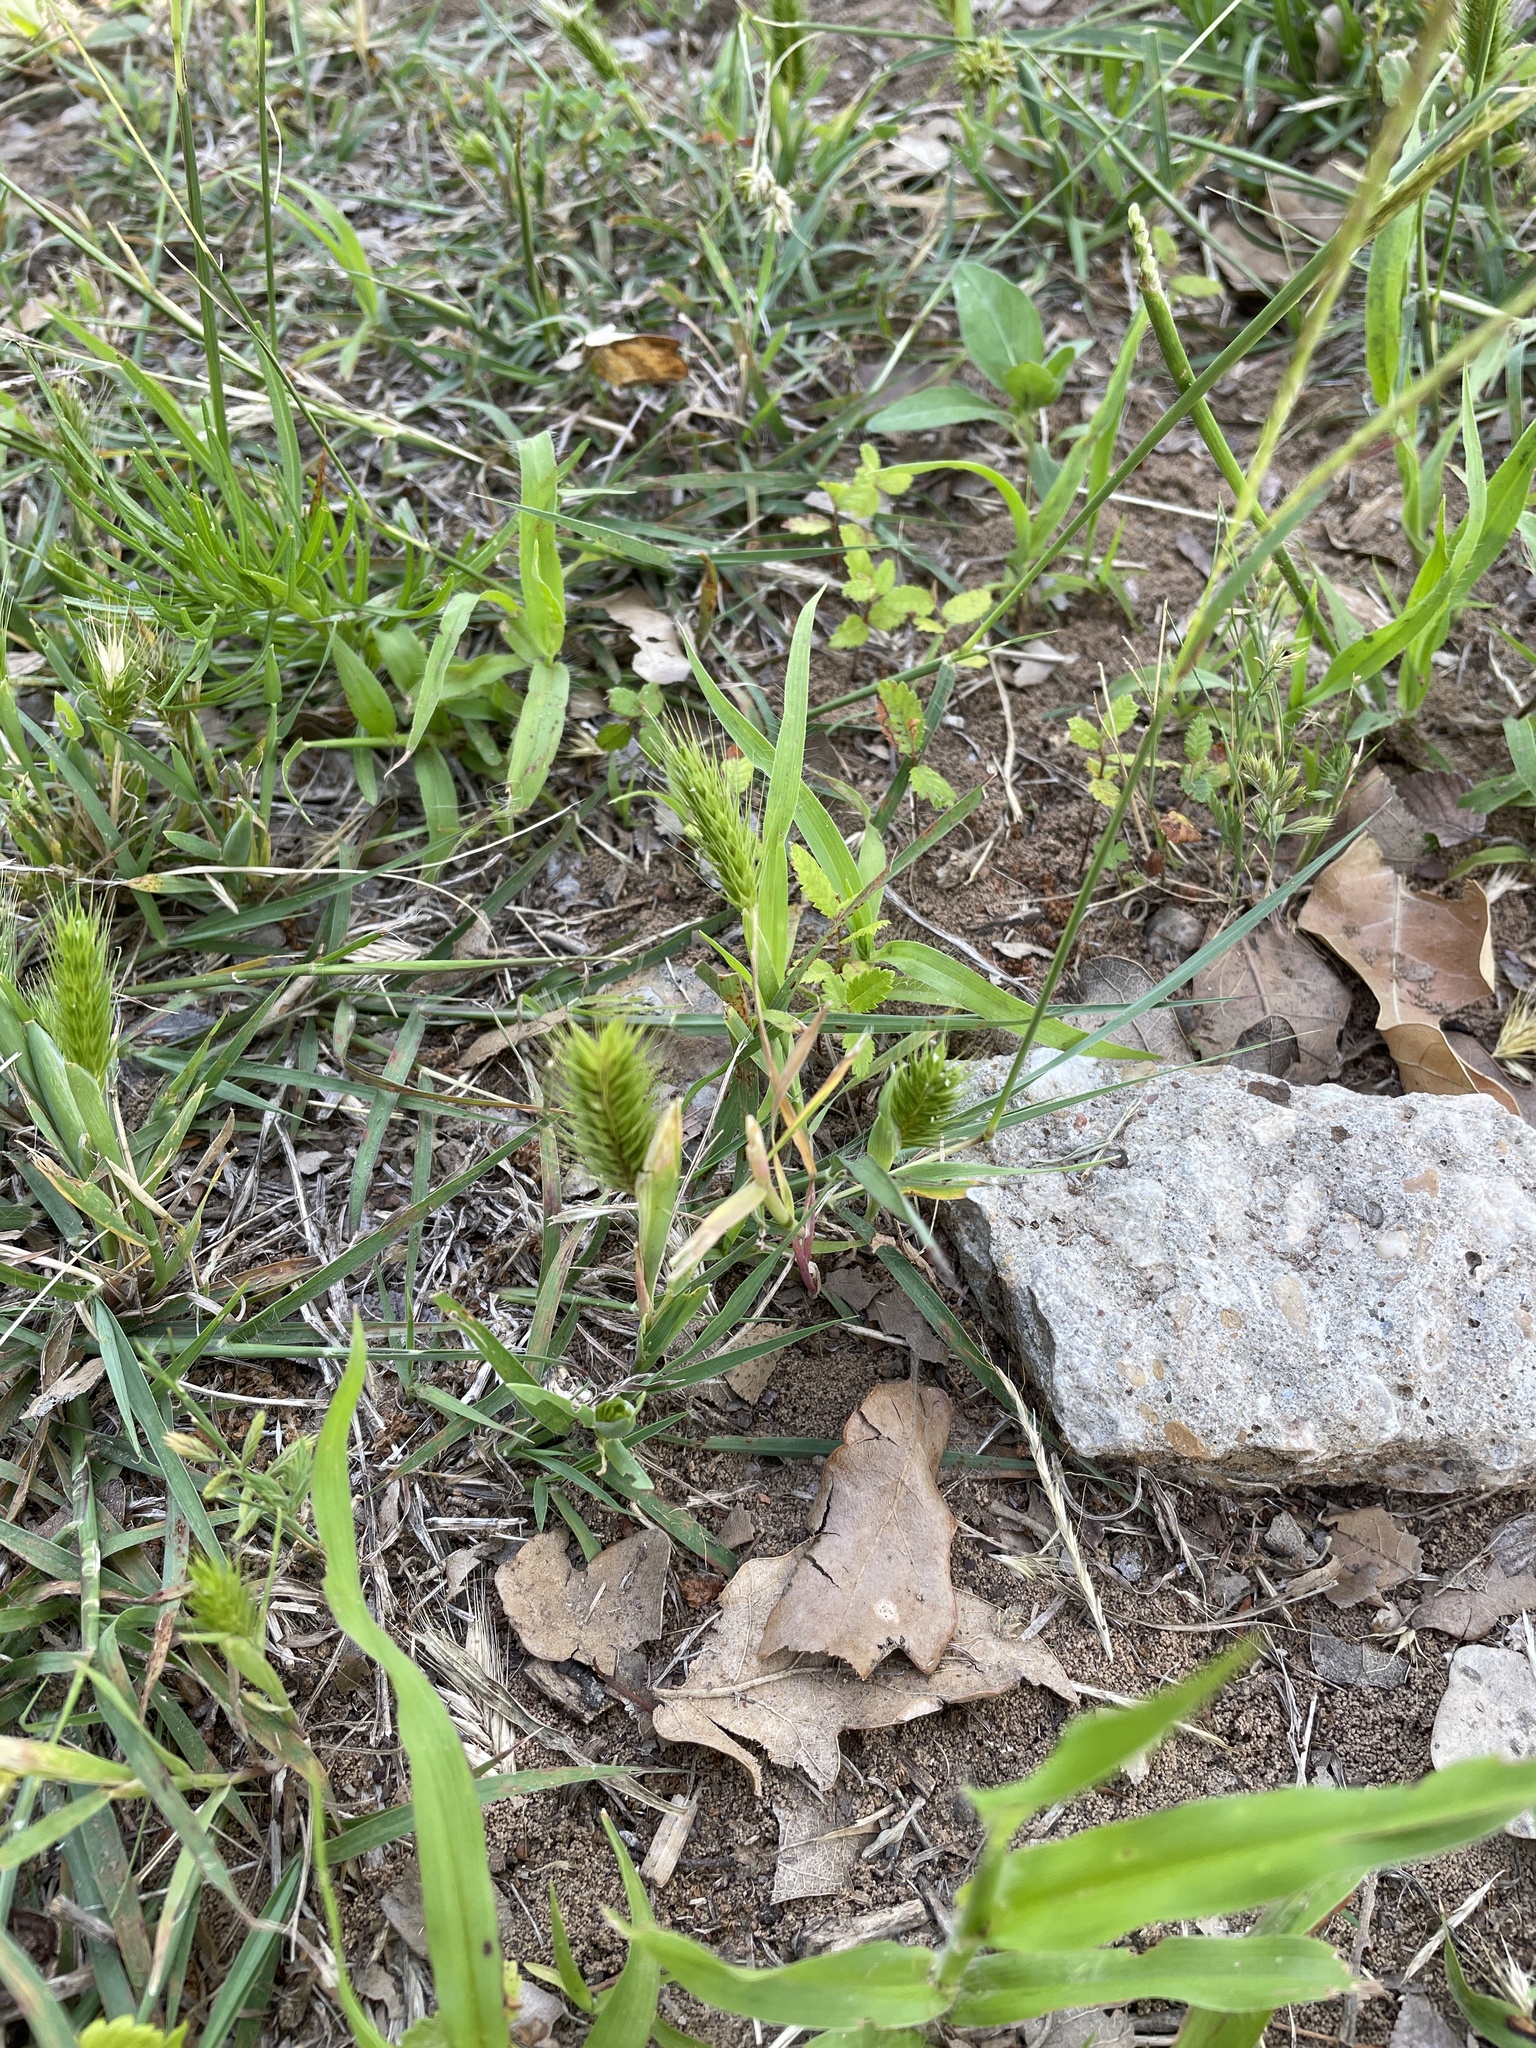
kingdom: Plantae
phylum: Tracheophyta
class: Liliopsida
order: Poales
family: Poaceae
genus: Hordeum
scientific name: Hordeum pusillum
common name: Little barley
